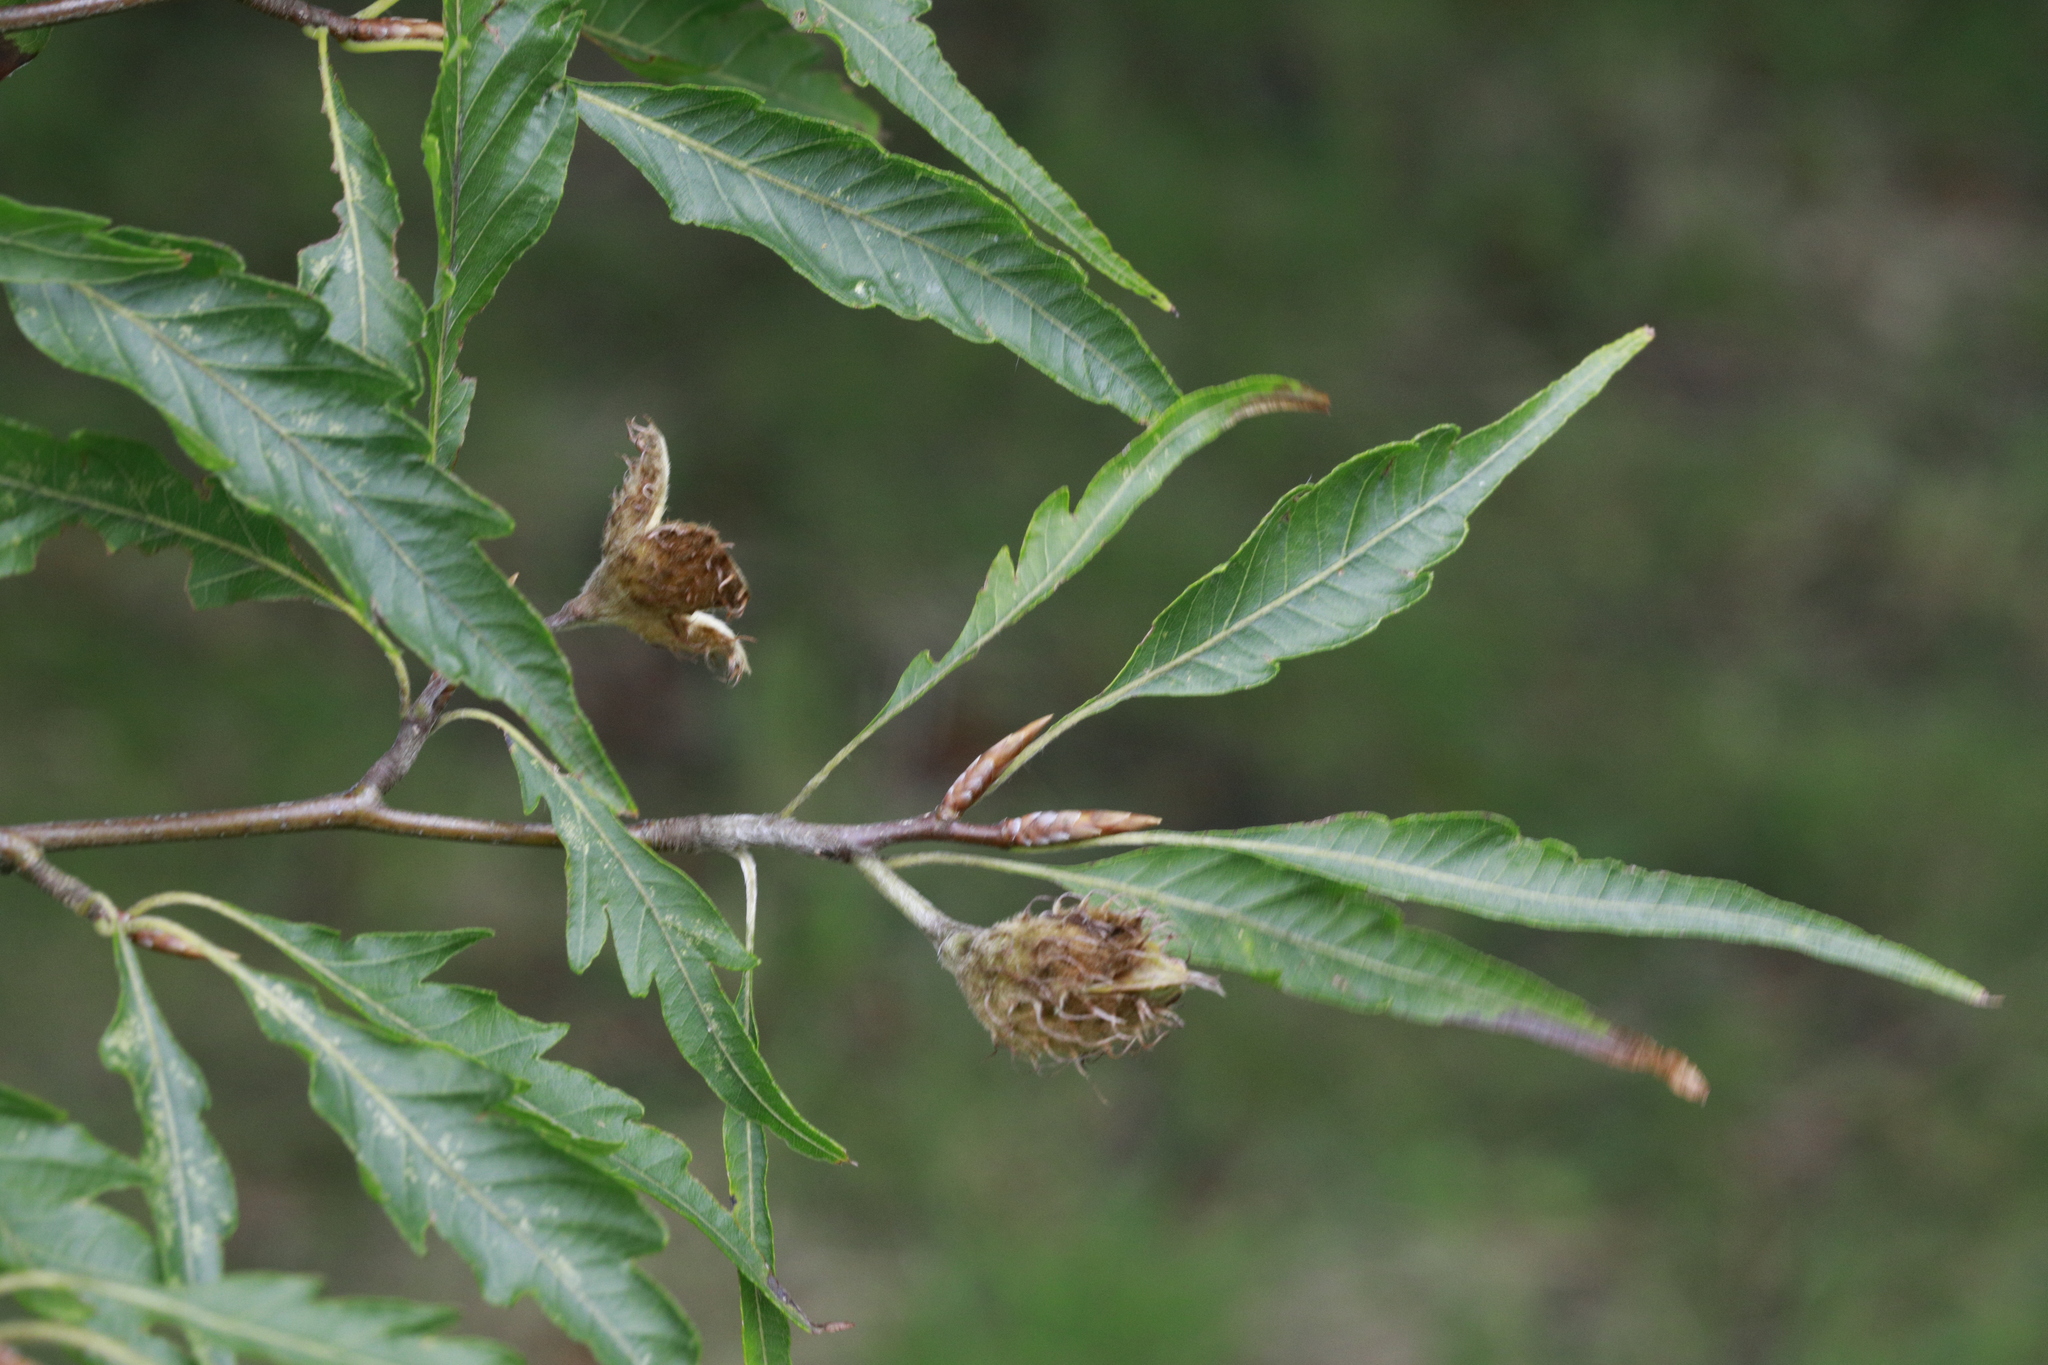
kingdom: Plantae
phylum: Tracheophyta
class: Magnoliopsida
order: Fagales
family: Fagaceae
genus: Fagus
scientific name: Fagus sylvatica
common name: Beech
